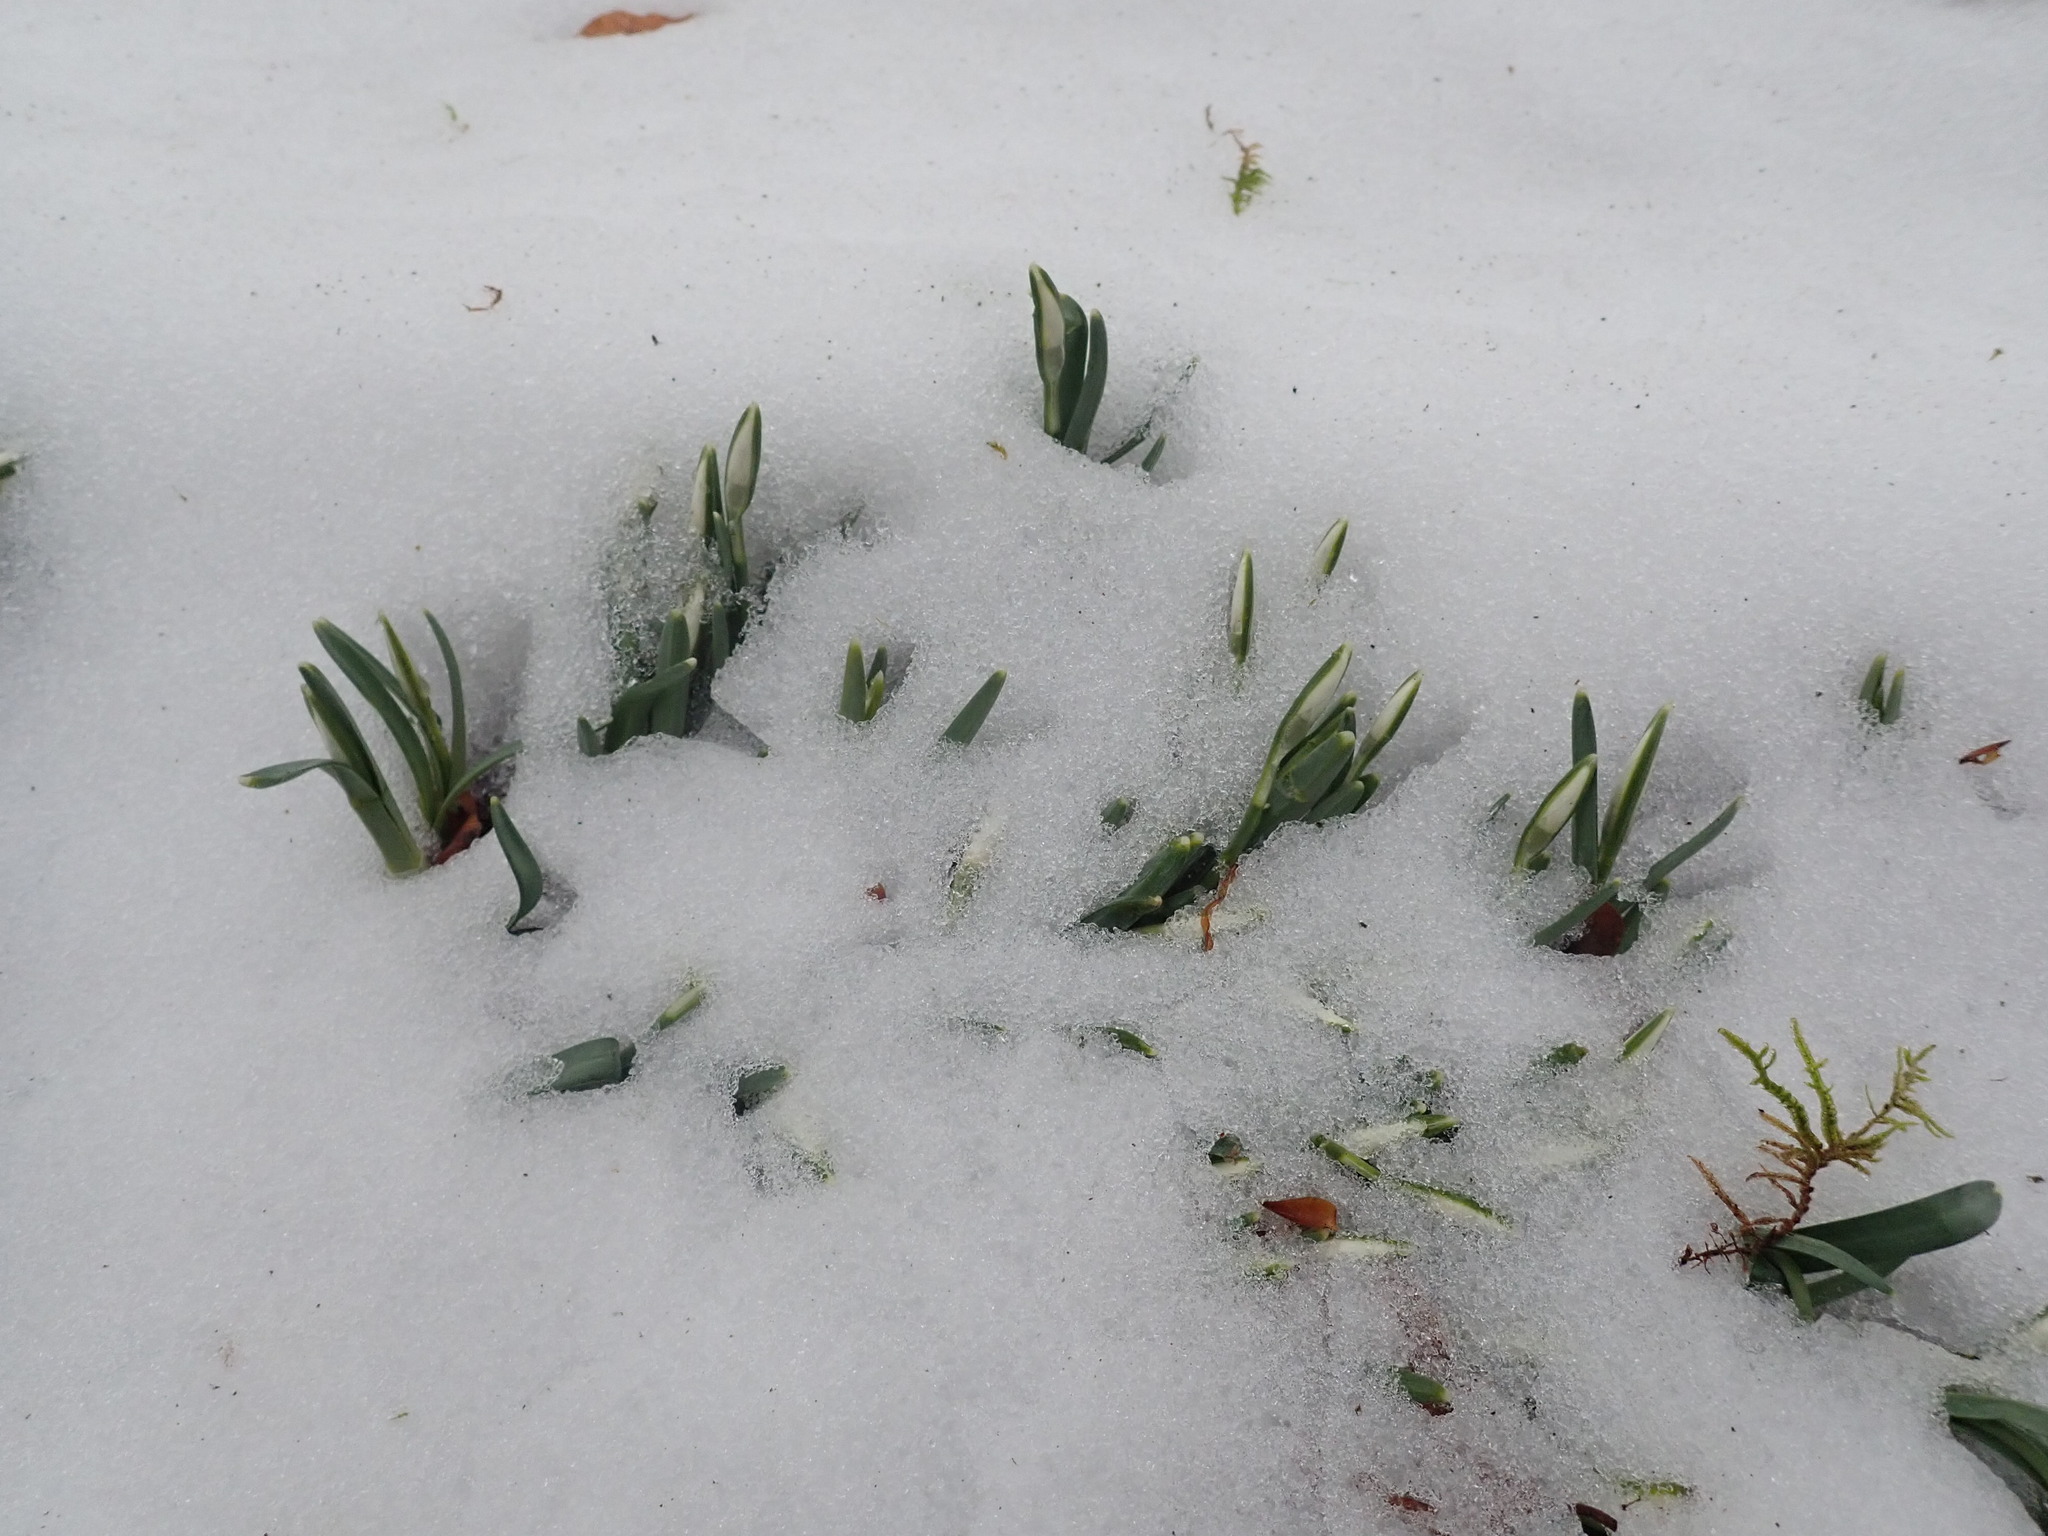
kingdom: Plantae
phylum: Tracheophyta
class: Liliopsida
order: Asparagales
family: Amaryllidaceae
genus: Galanthus
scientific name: Galanthus nivalis
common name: Snowdrop
